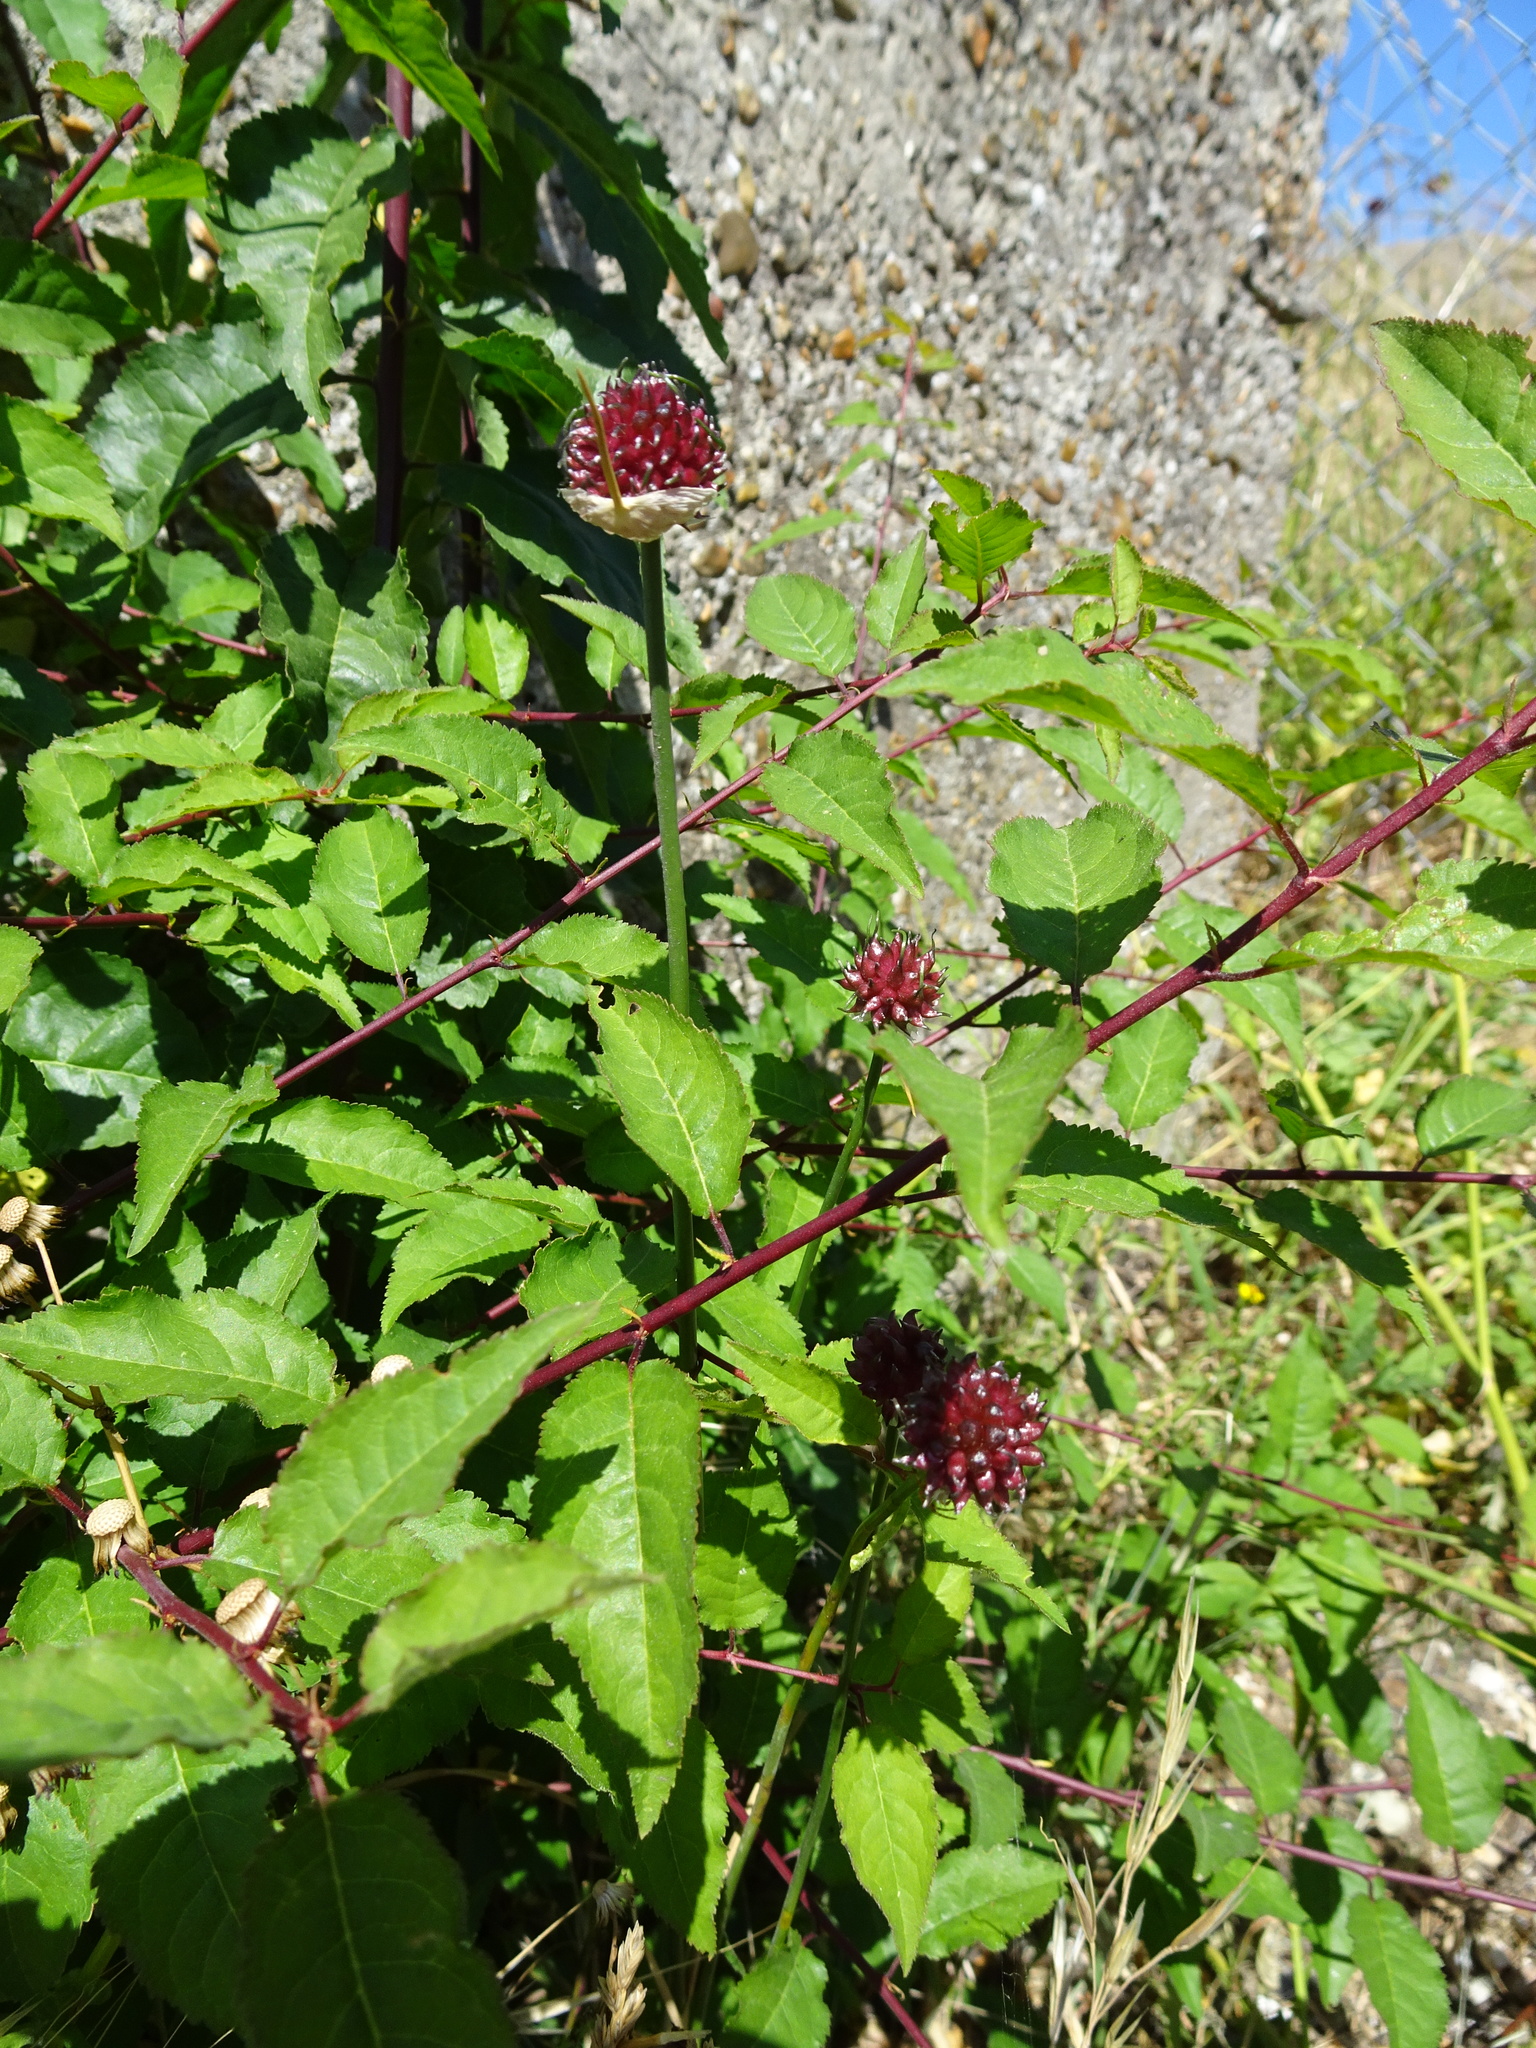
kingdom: Plantae
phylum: Tracheophyta
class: Liliopsida
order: Asparagales
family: Amaryllidaceae
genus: Allium
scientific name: Allium vineale
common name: Crow garlic
